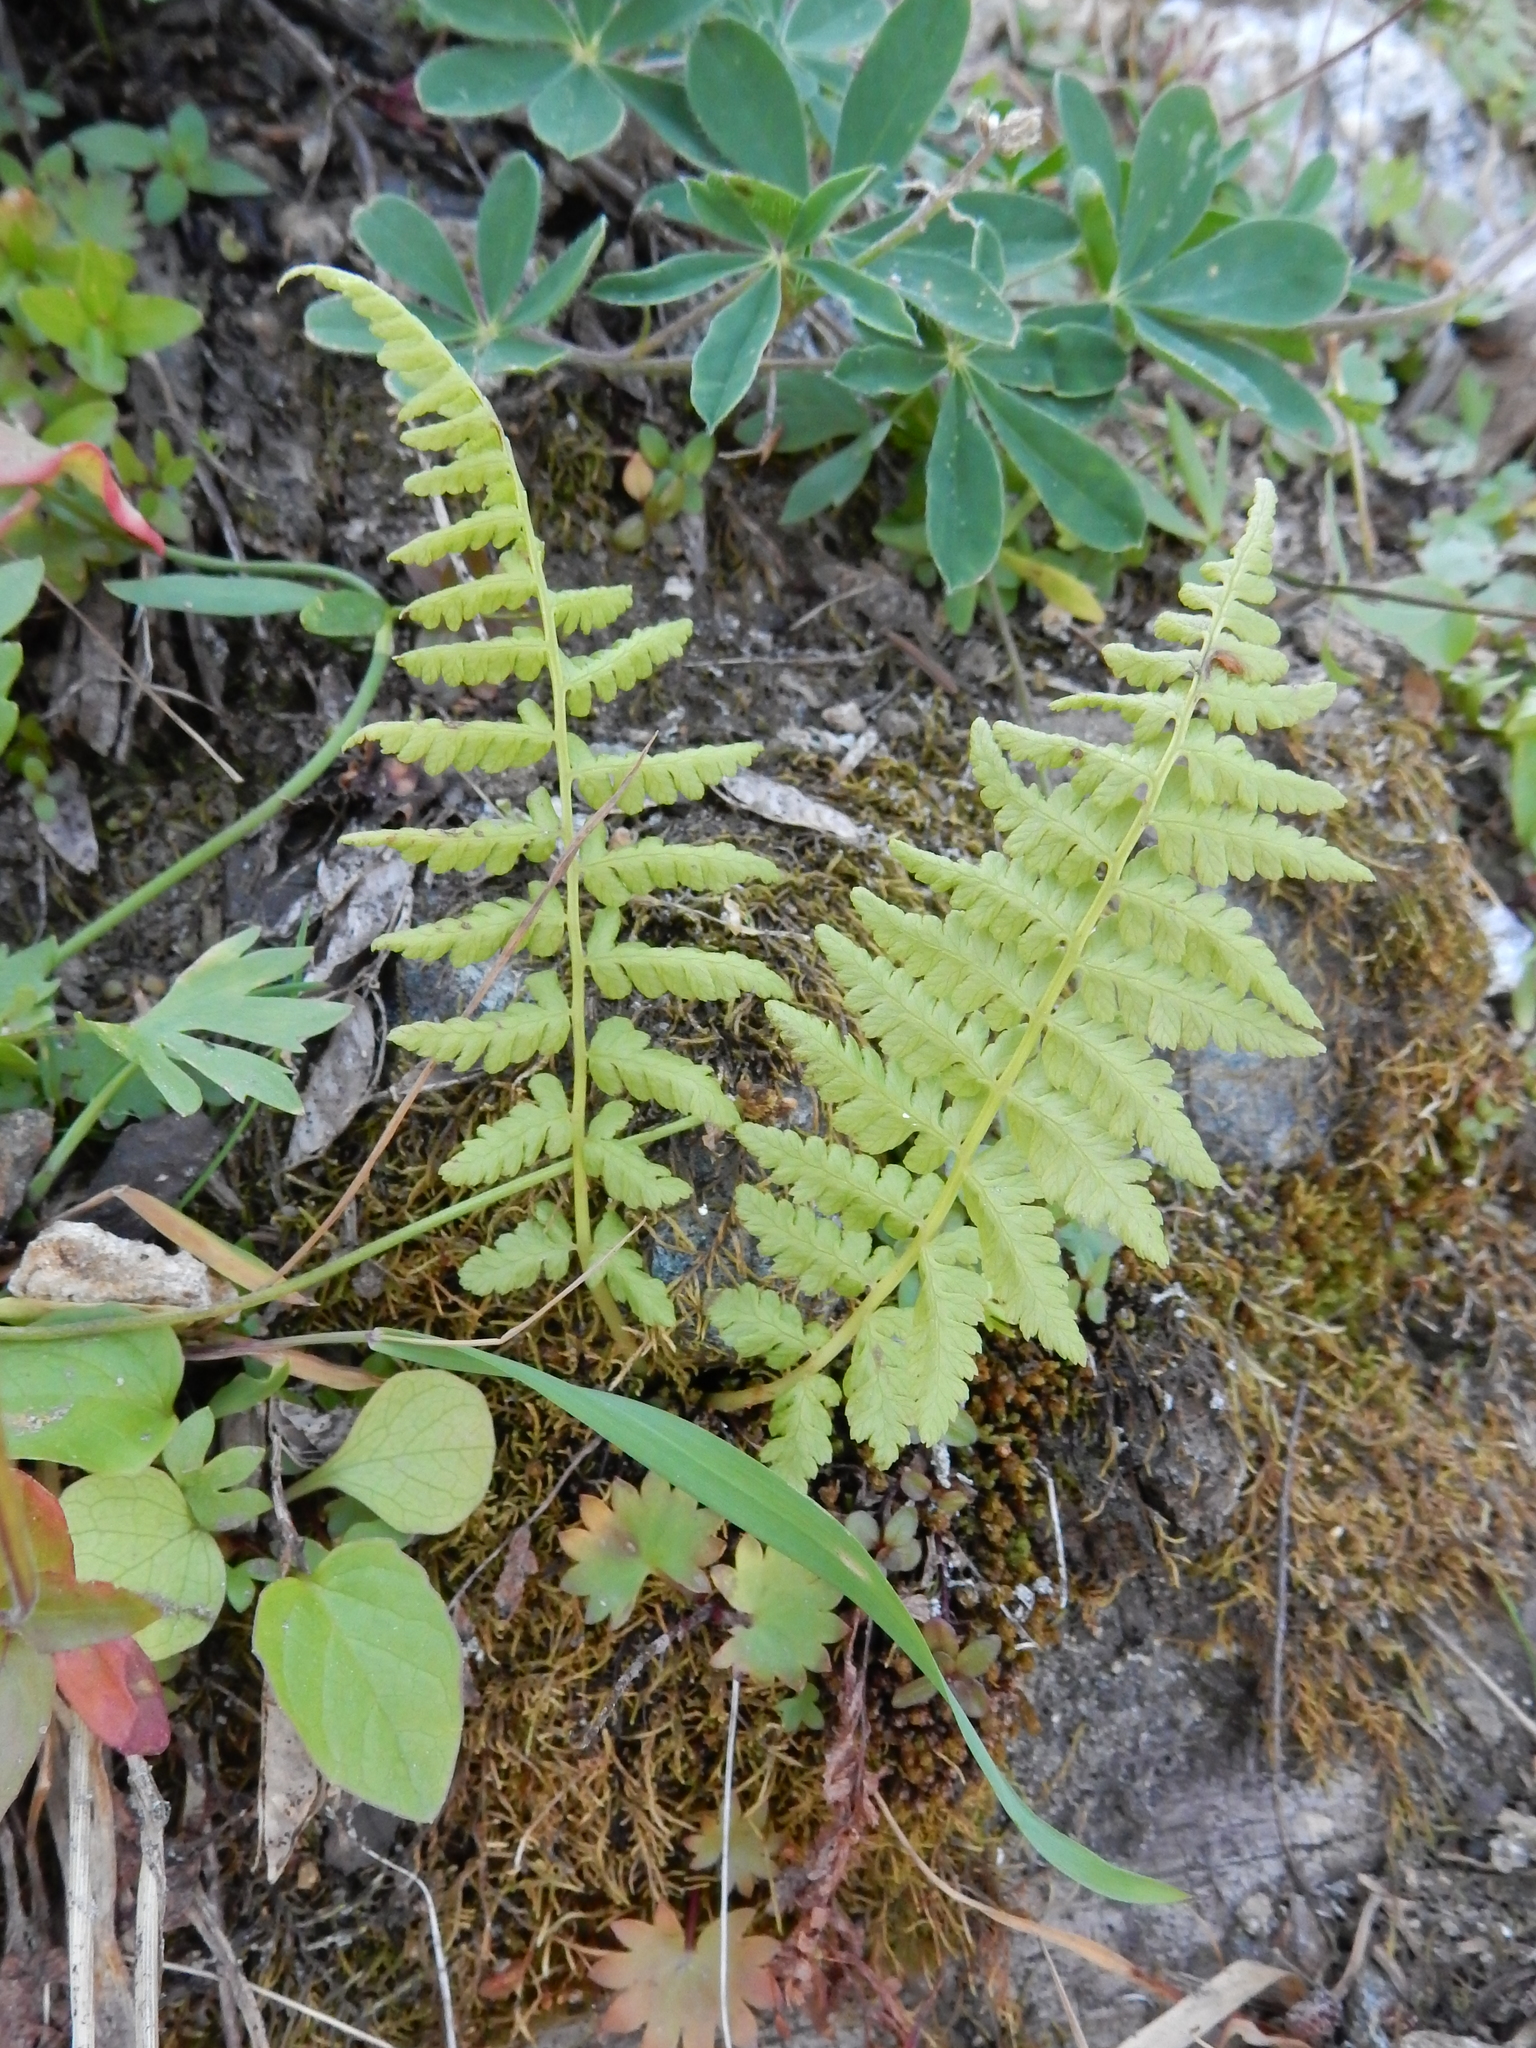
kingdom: Plantae
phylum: Tracheophyta
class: Polypodiopsida
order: Polypodiales
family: Athyriaceae
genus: Athyrium
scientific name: Athyrium cyclosorum
